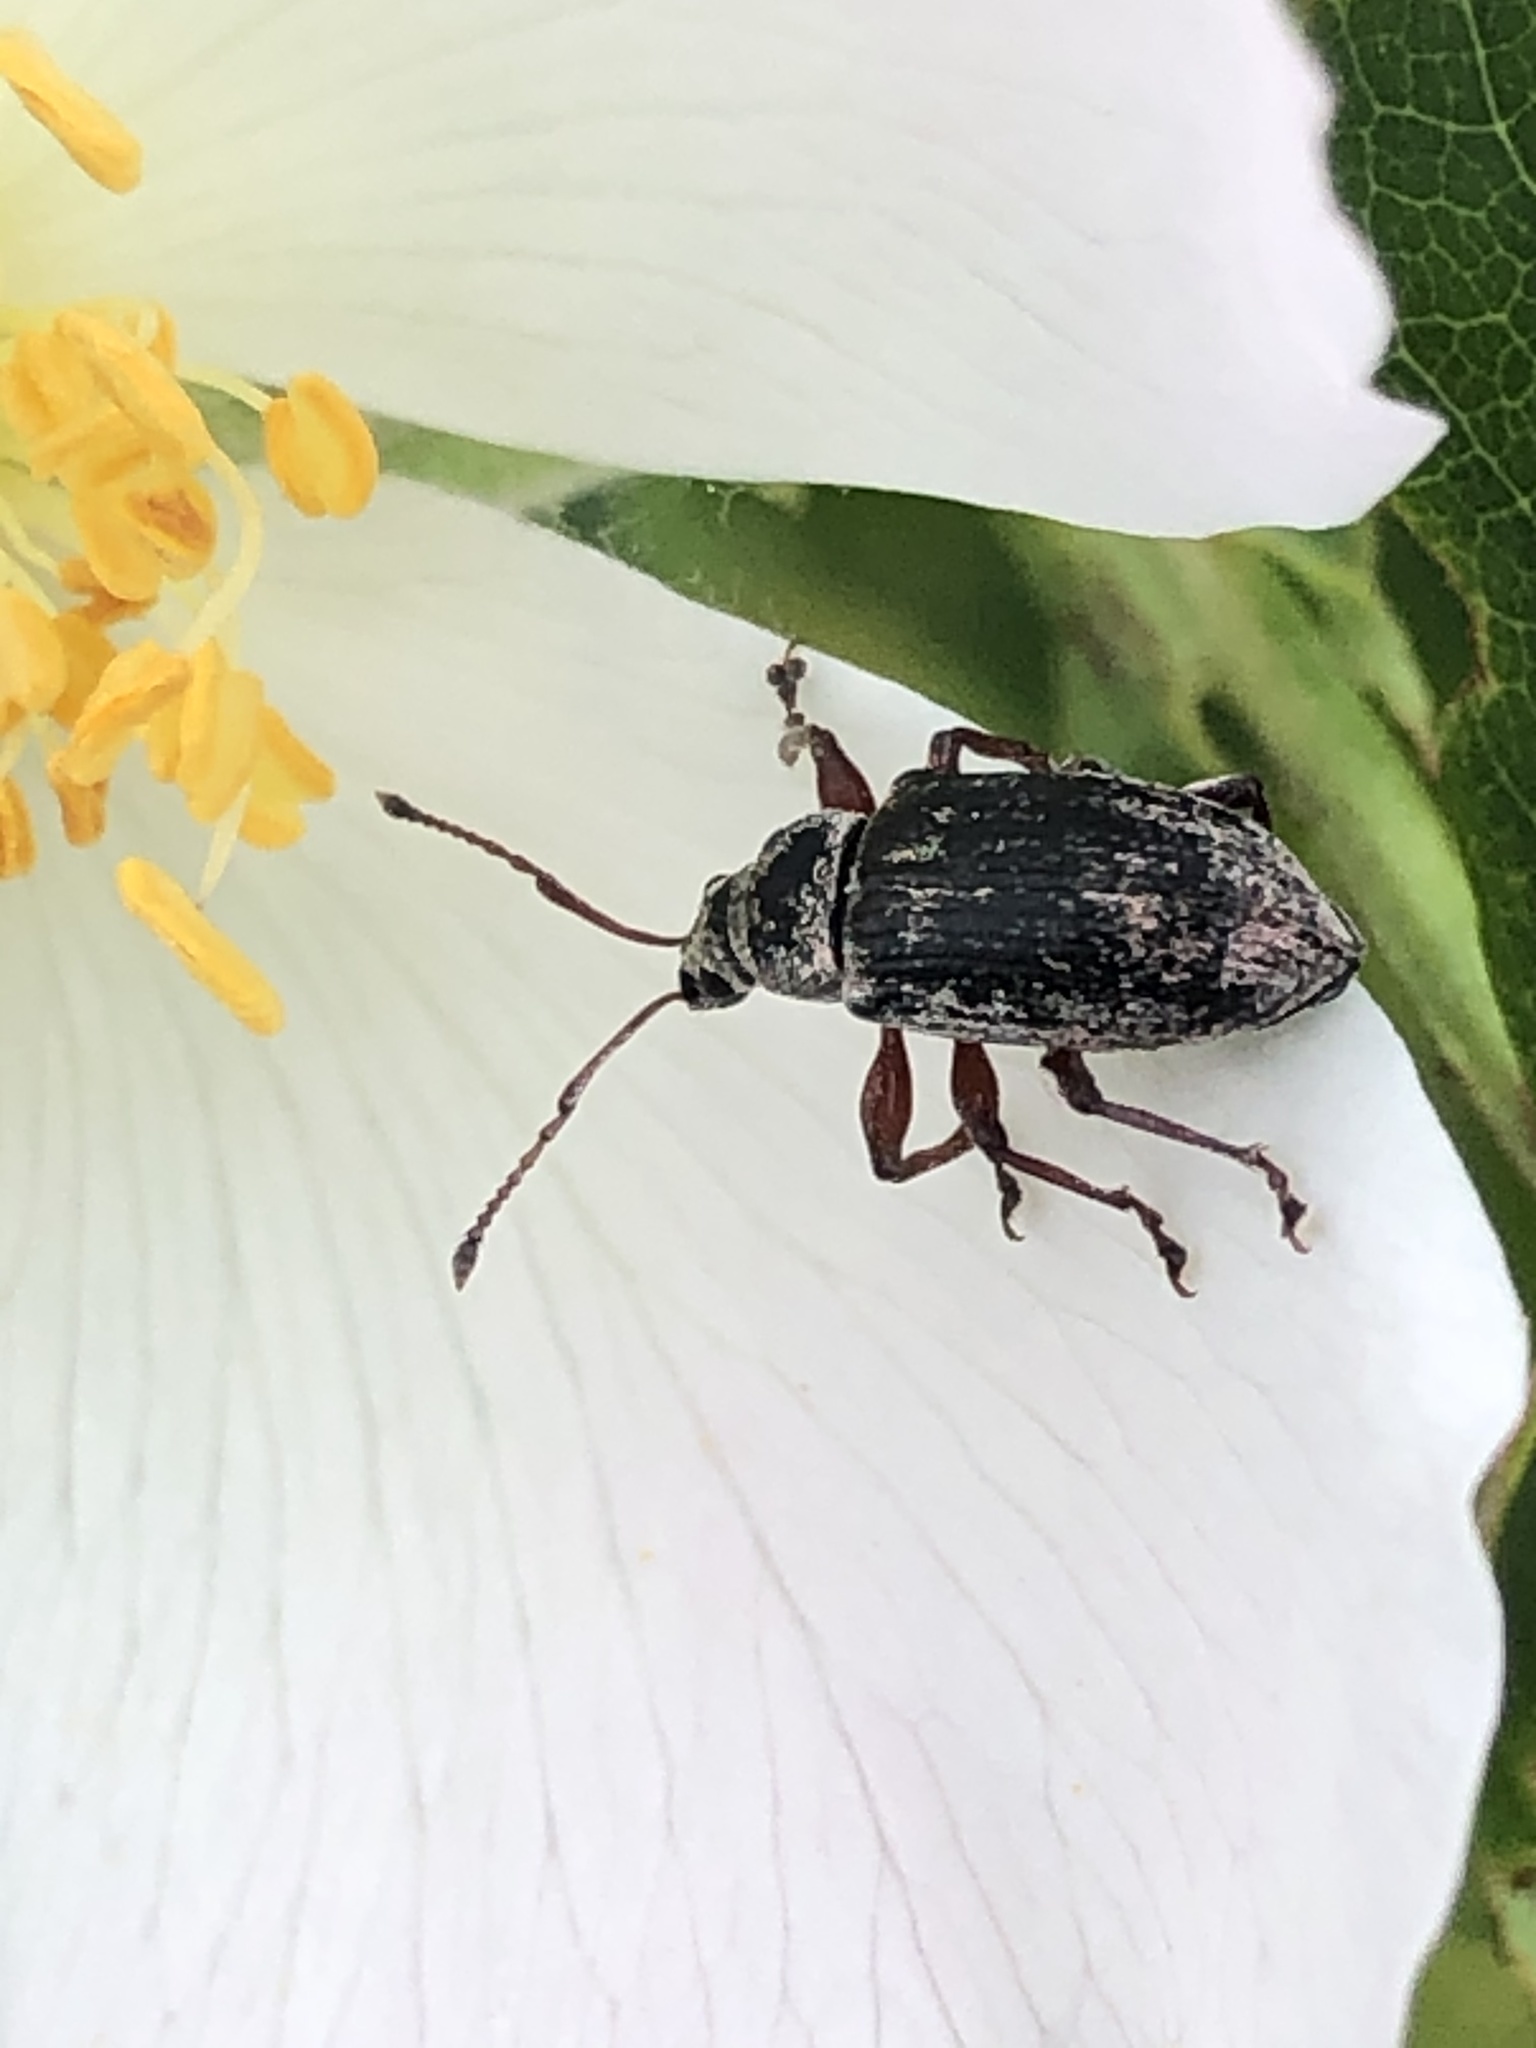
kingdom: Animalia
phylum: Arthropoda
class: Insecta
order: Coleoptera
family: Curculionidae
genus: Phyllobius
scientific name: Phyllobius pyri
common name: Common leaf weevil
